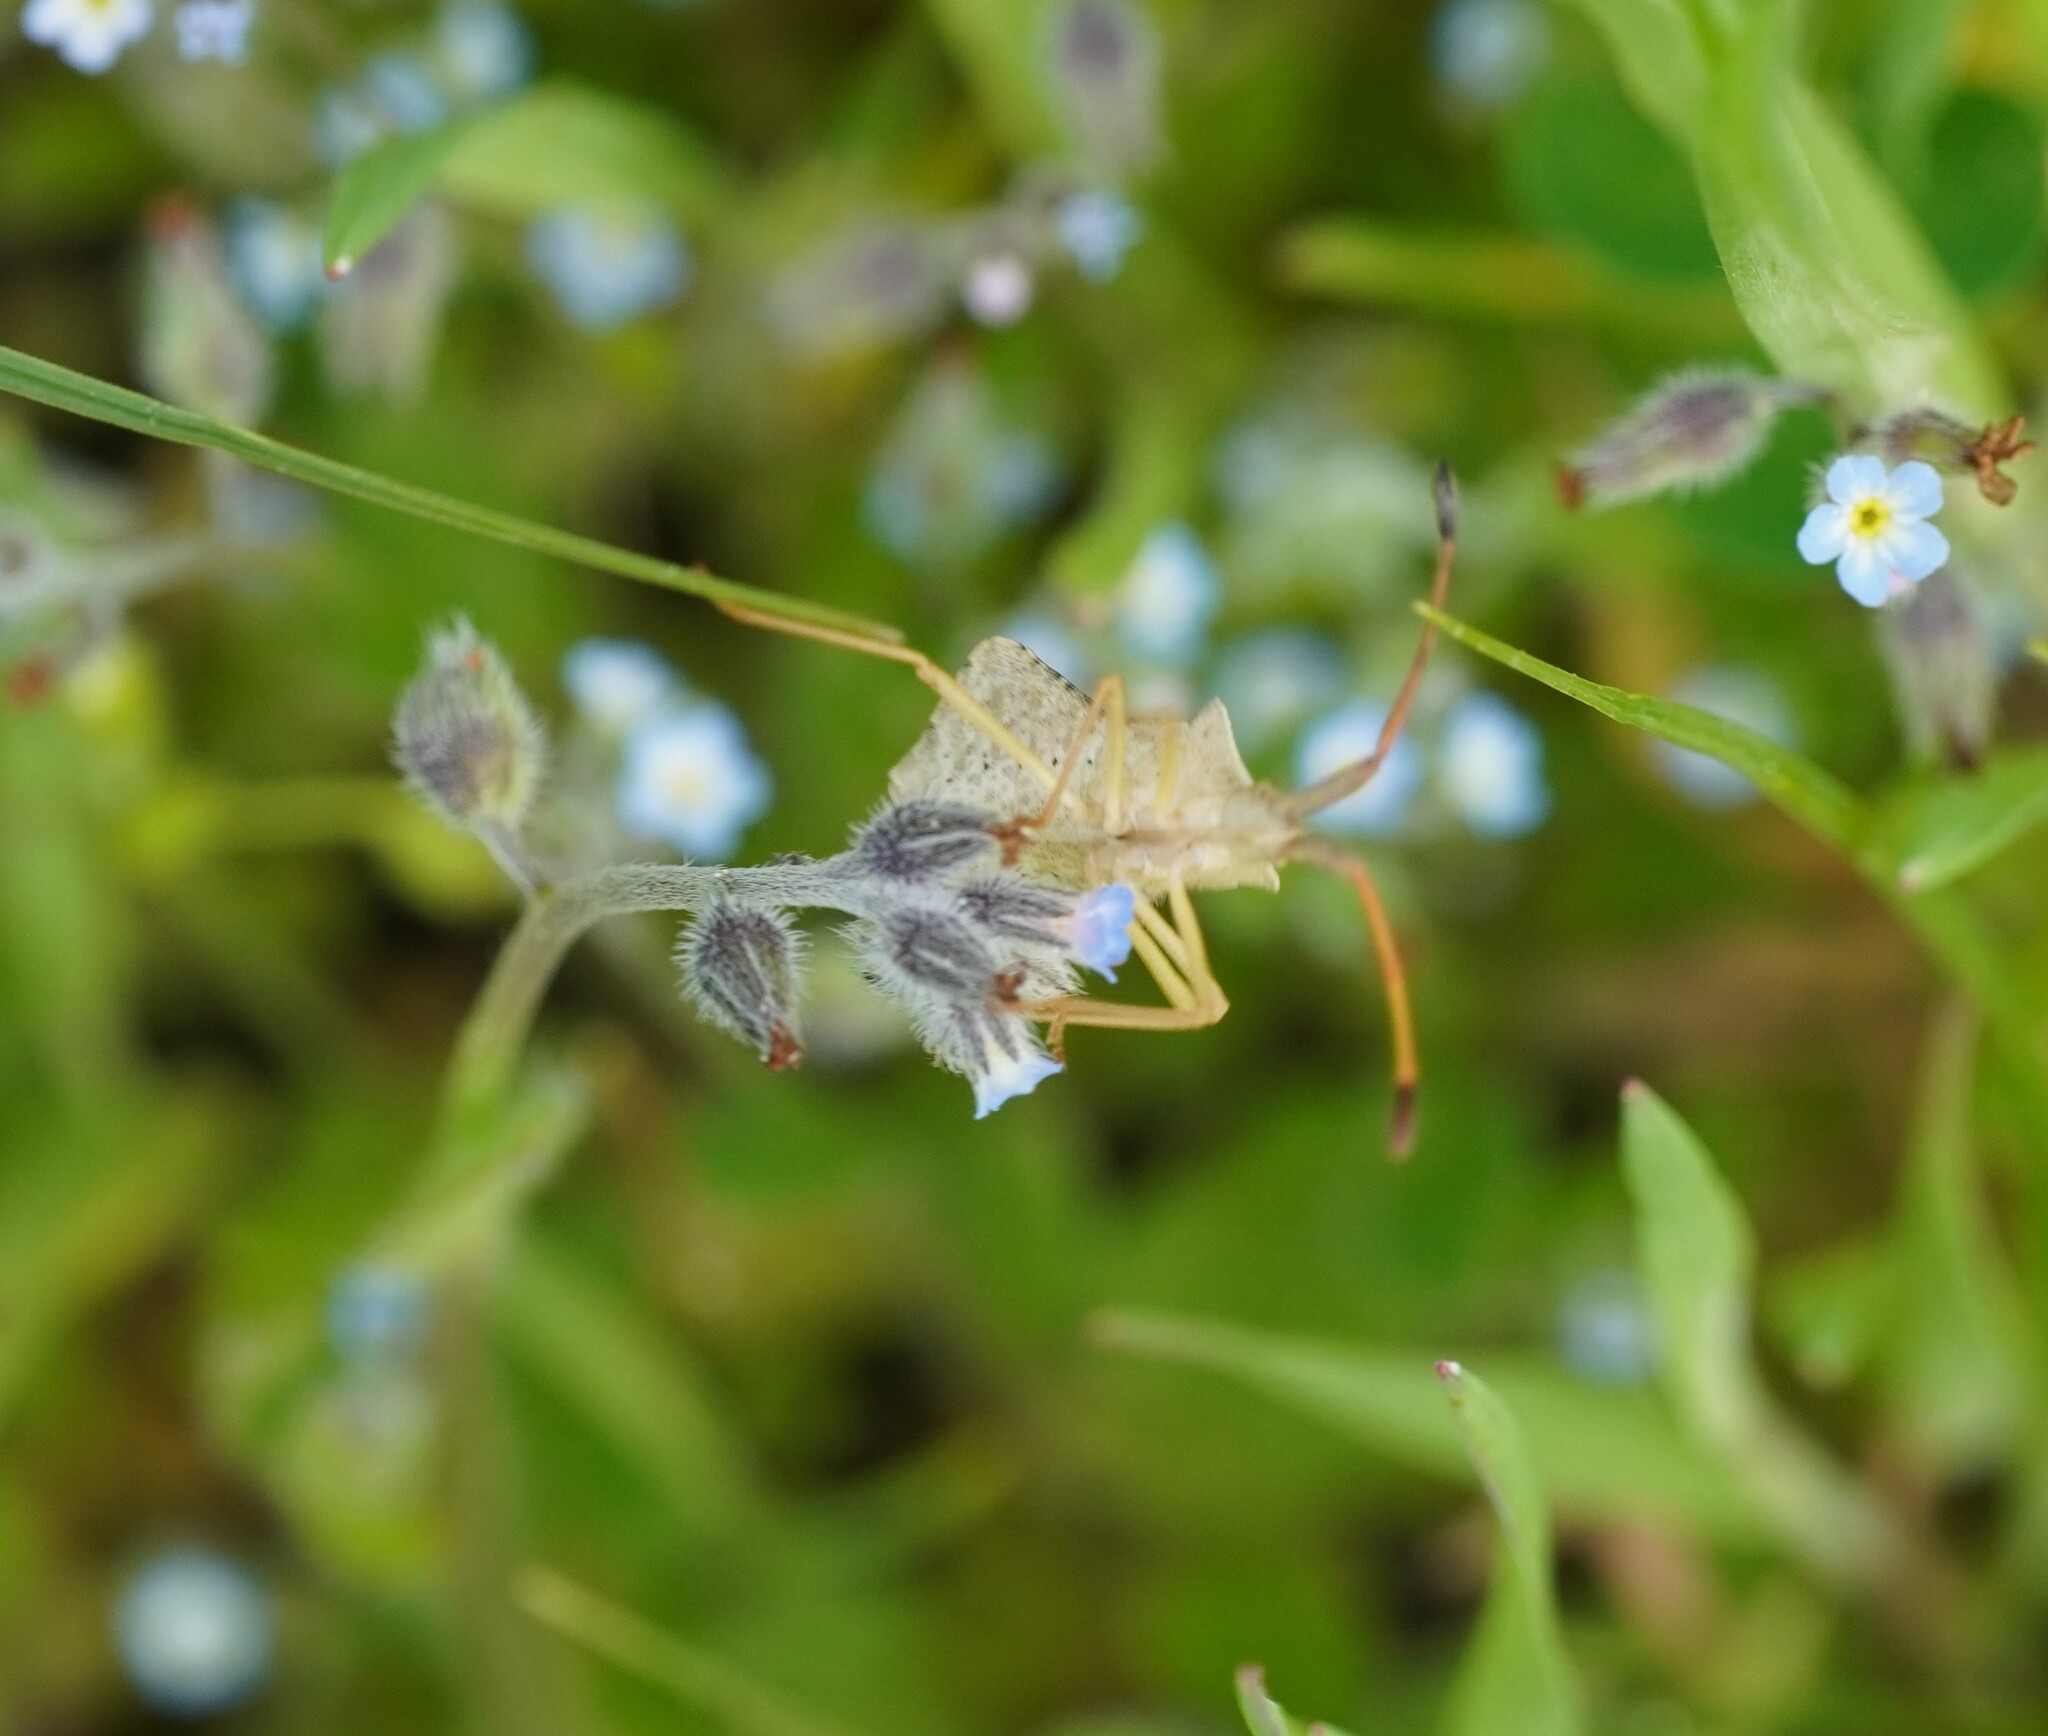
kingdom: Animalia
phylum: Arthropoda
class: Insecta
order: Hemiptera
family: Coreidae
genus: Syromastus
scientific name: Syromastus rhombeus
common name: Rhombic leatherbug
